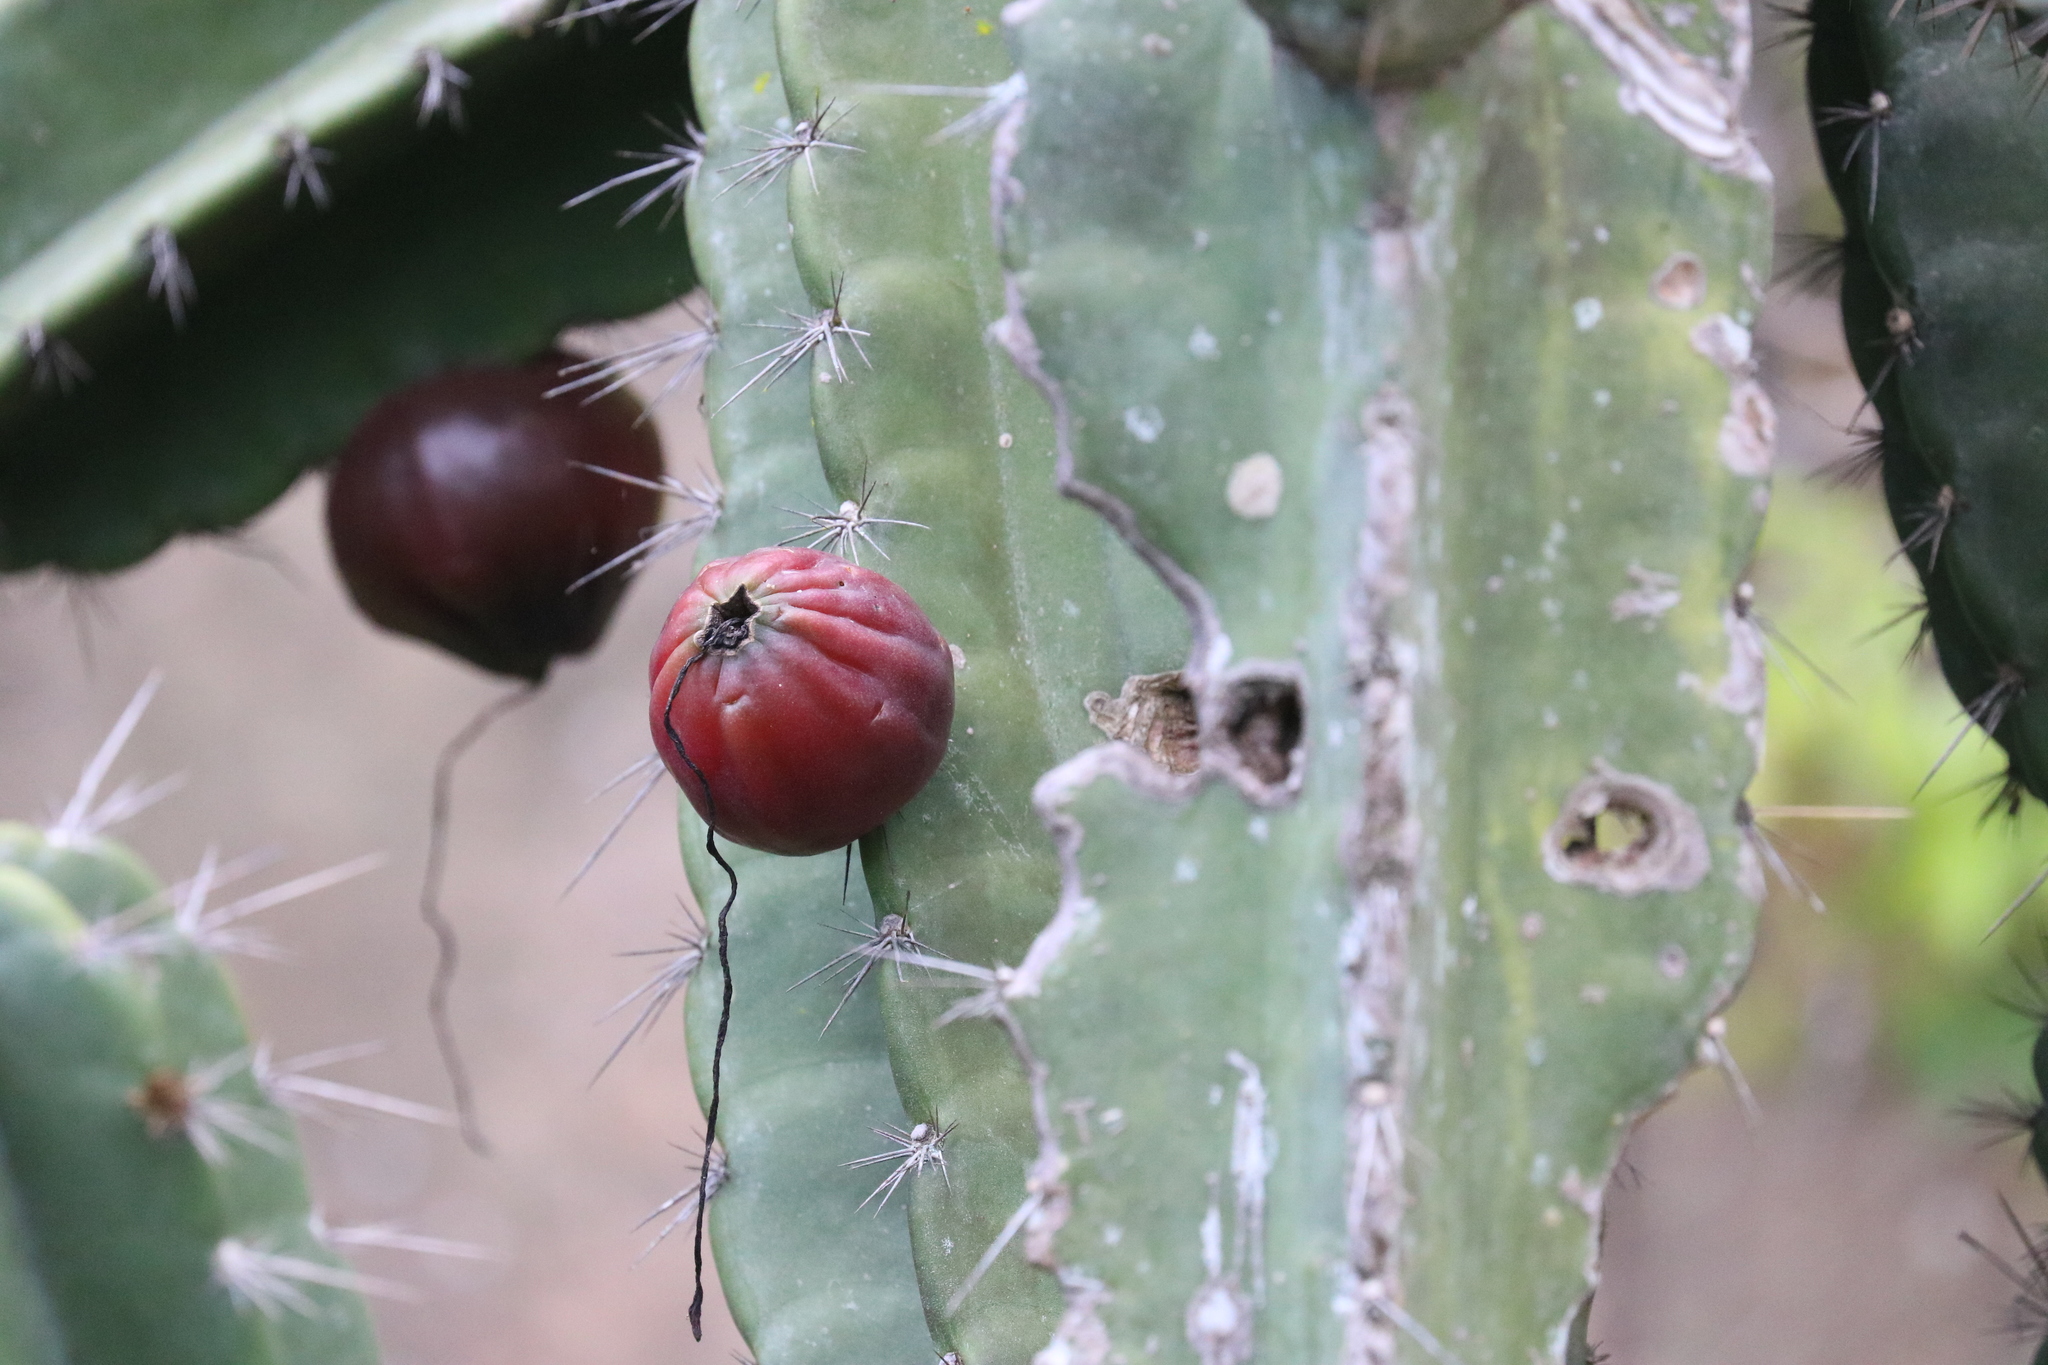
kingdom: Plantae
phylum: Tracheophyta
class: Magnoliopsida
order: Caryophyllales
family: Cactaceae
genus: Cereus
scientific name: Cereus jamacaru
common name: Queen-of-the-night
